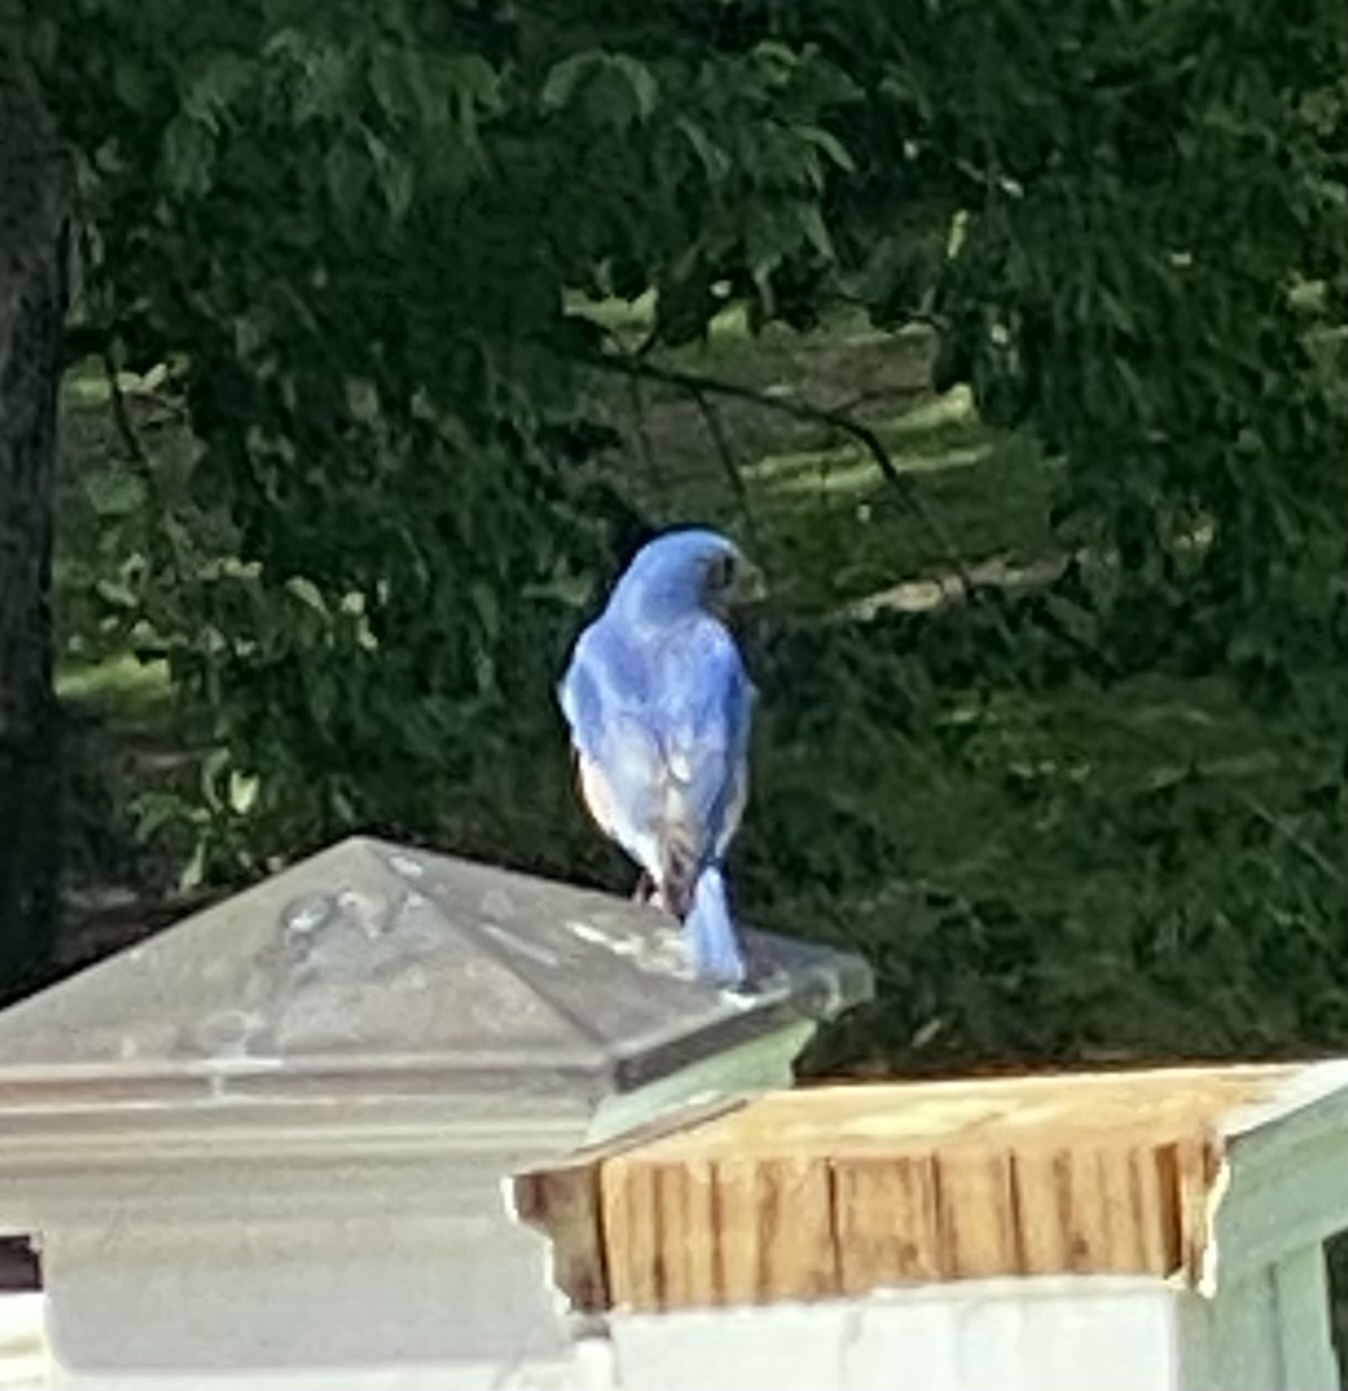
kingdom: Animalia
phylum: Chordata
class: Aves
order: Passeriformes
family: Turdidae
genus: Sialia
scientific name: Sialia sialis
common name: Eastern bluebird
